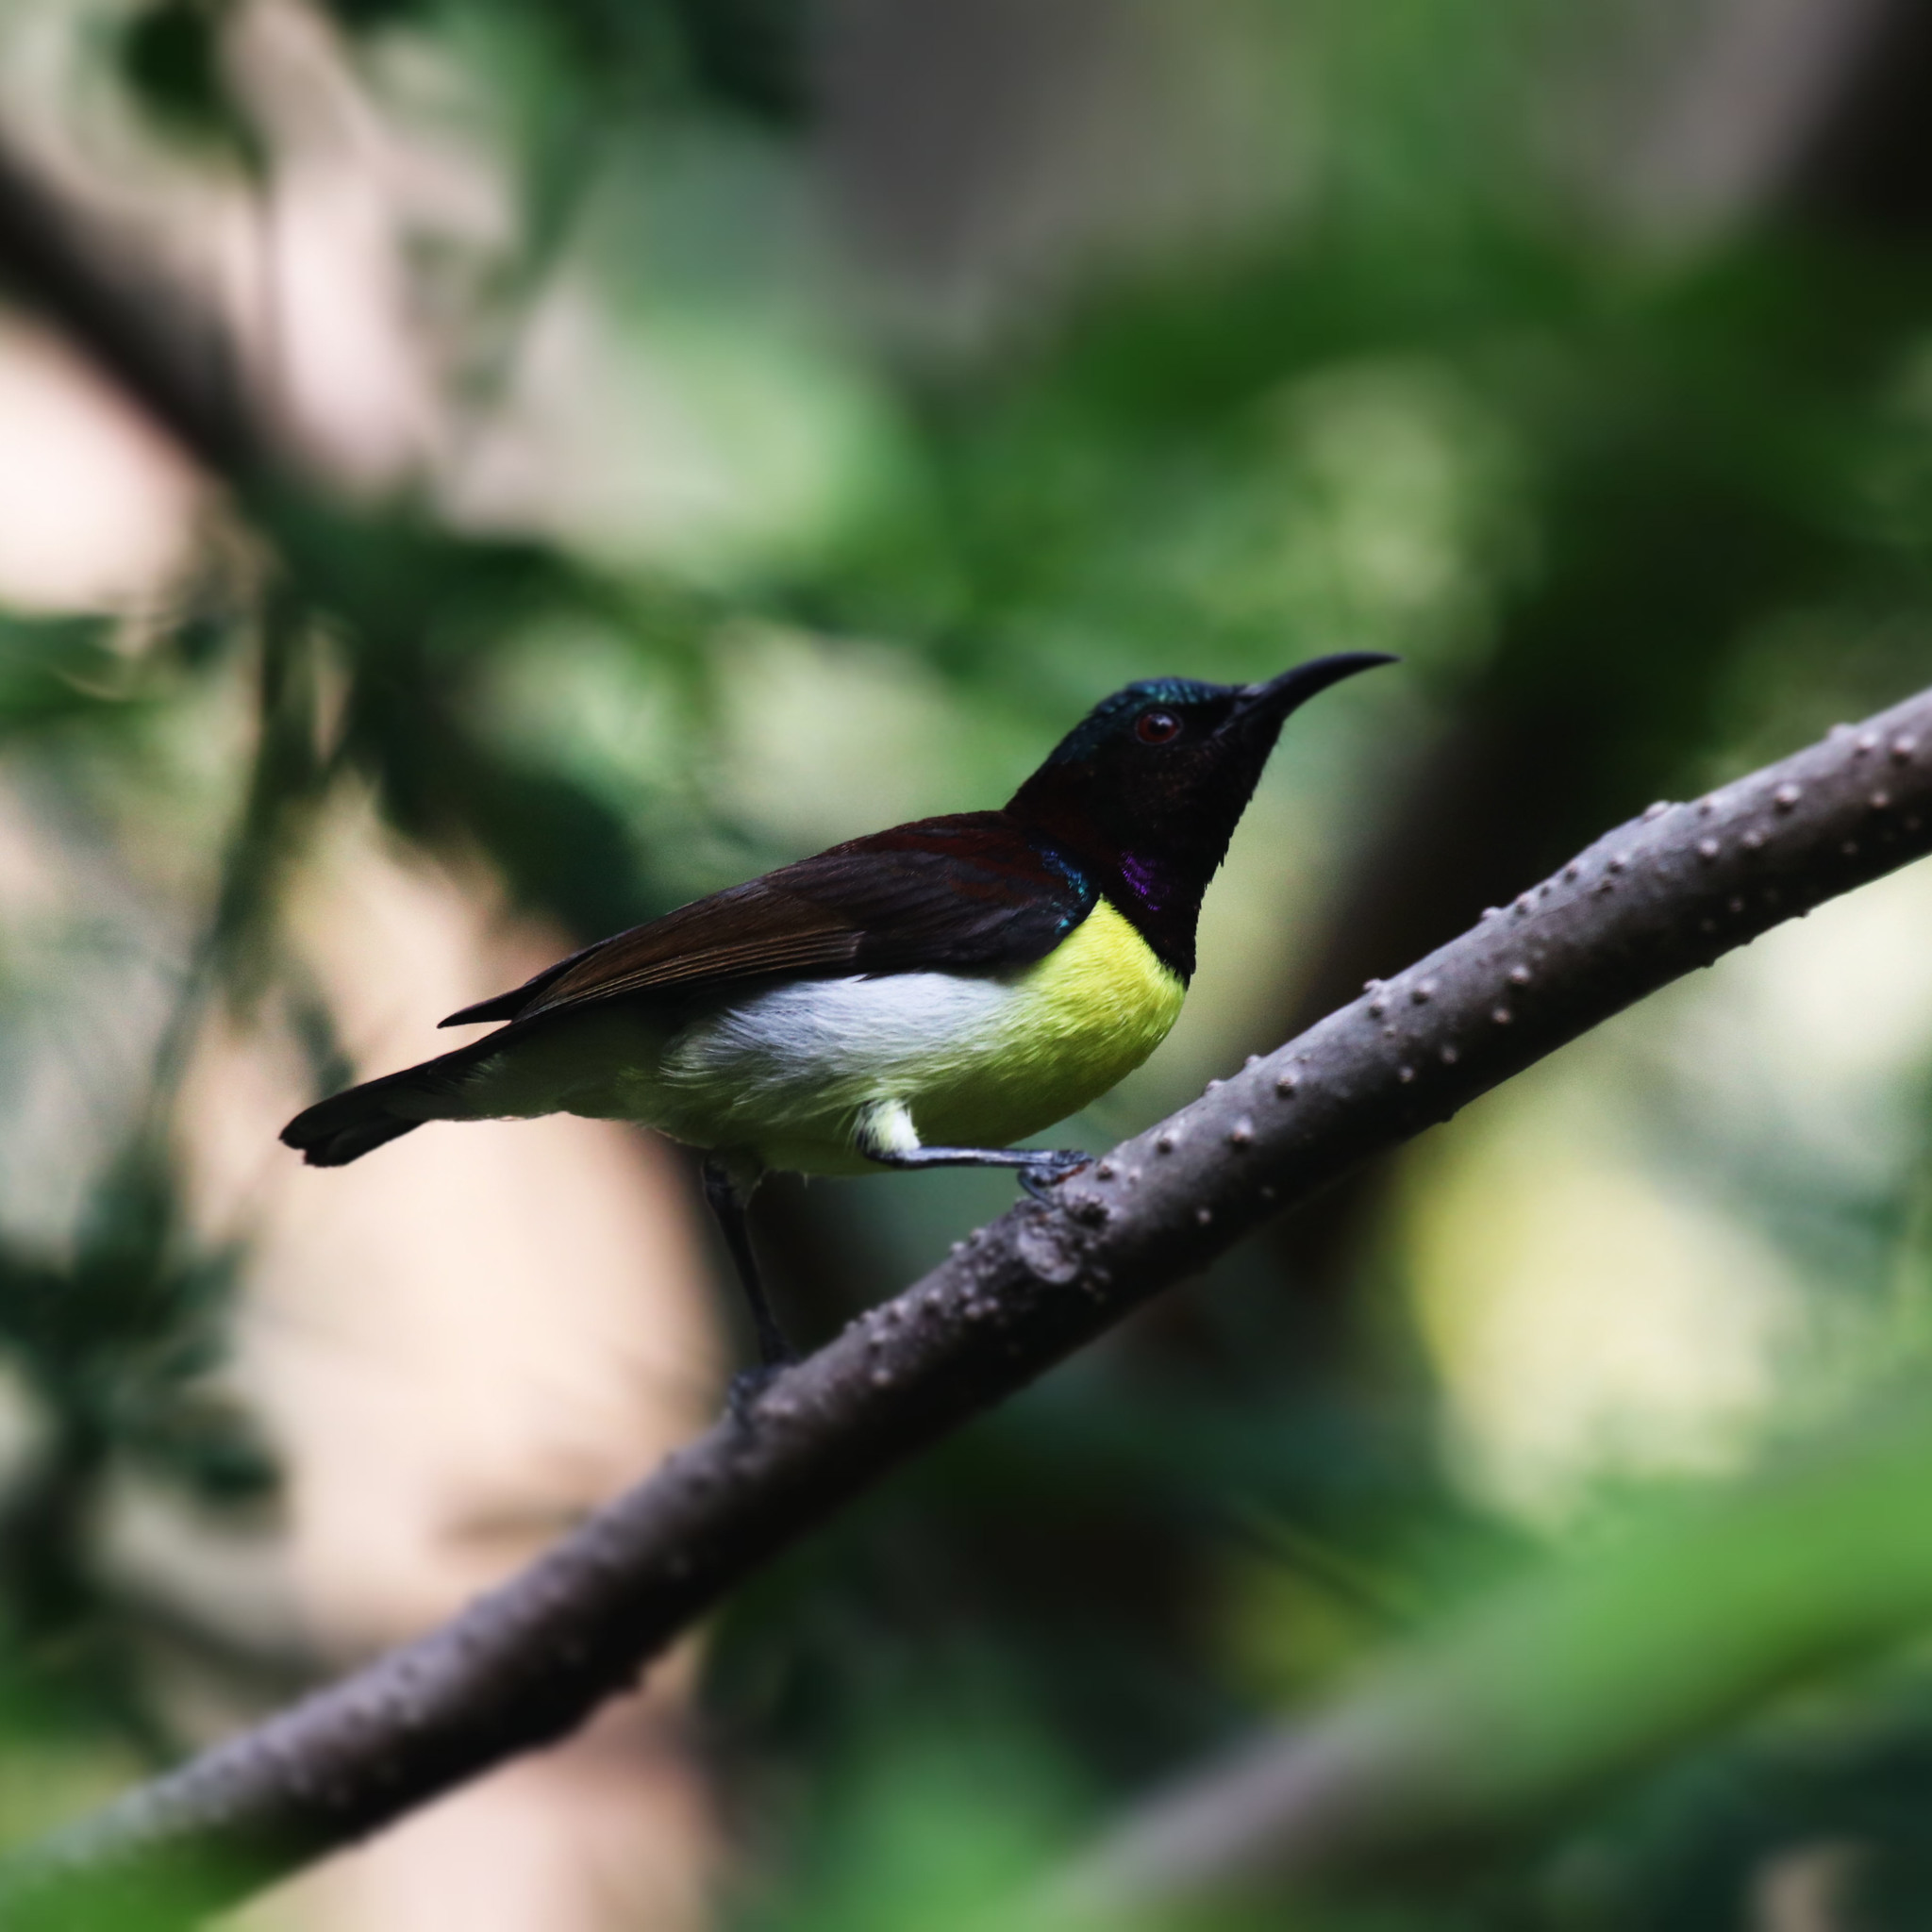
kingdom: Animalia
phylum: Chordata
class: Aves
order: Passeriformes
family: Nectariniidae
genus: Leptocoma
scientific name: Leptocoma zeylonica
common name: Purple-rumped sunbird
